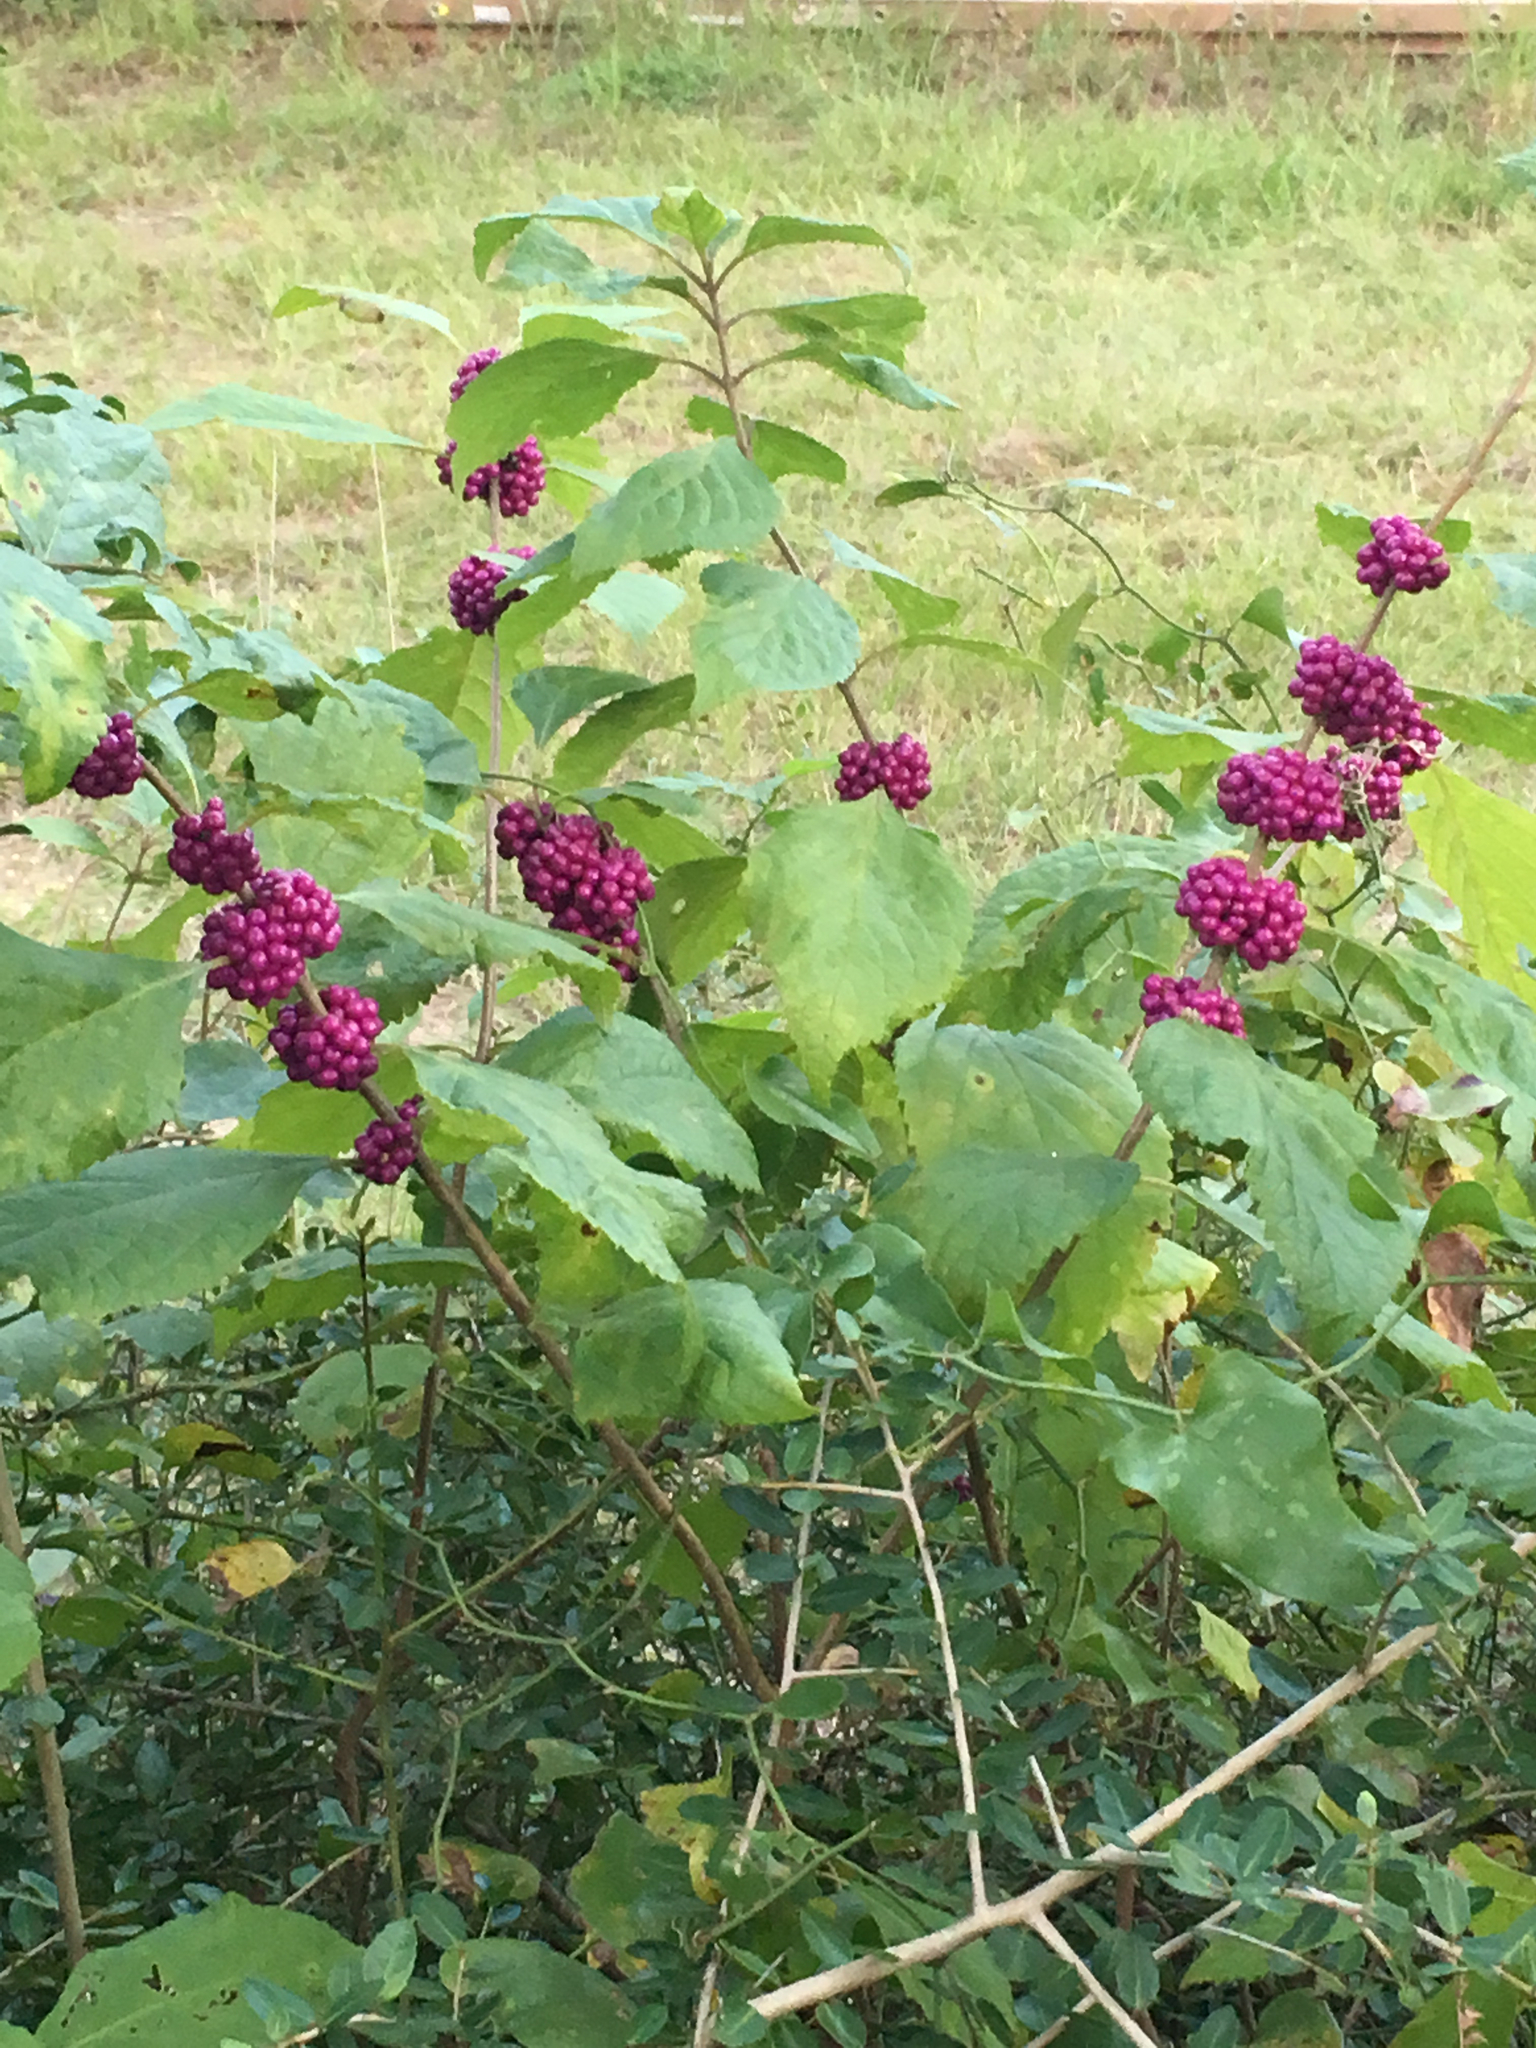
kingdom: Plantae
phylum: Tracheophyta
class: Magnoliopsida
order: Lamiales
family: Lamiaceae
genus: Callicarpa
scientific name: Callicarpa americana
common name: American beautyberry
